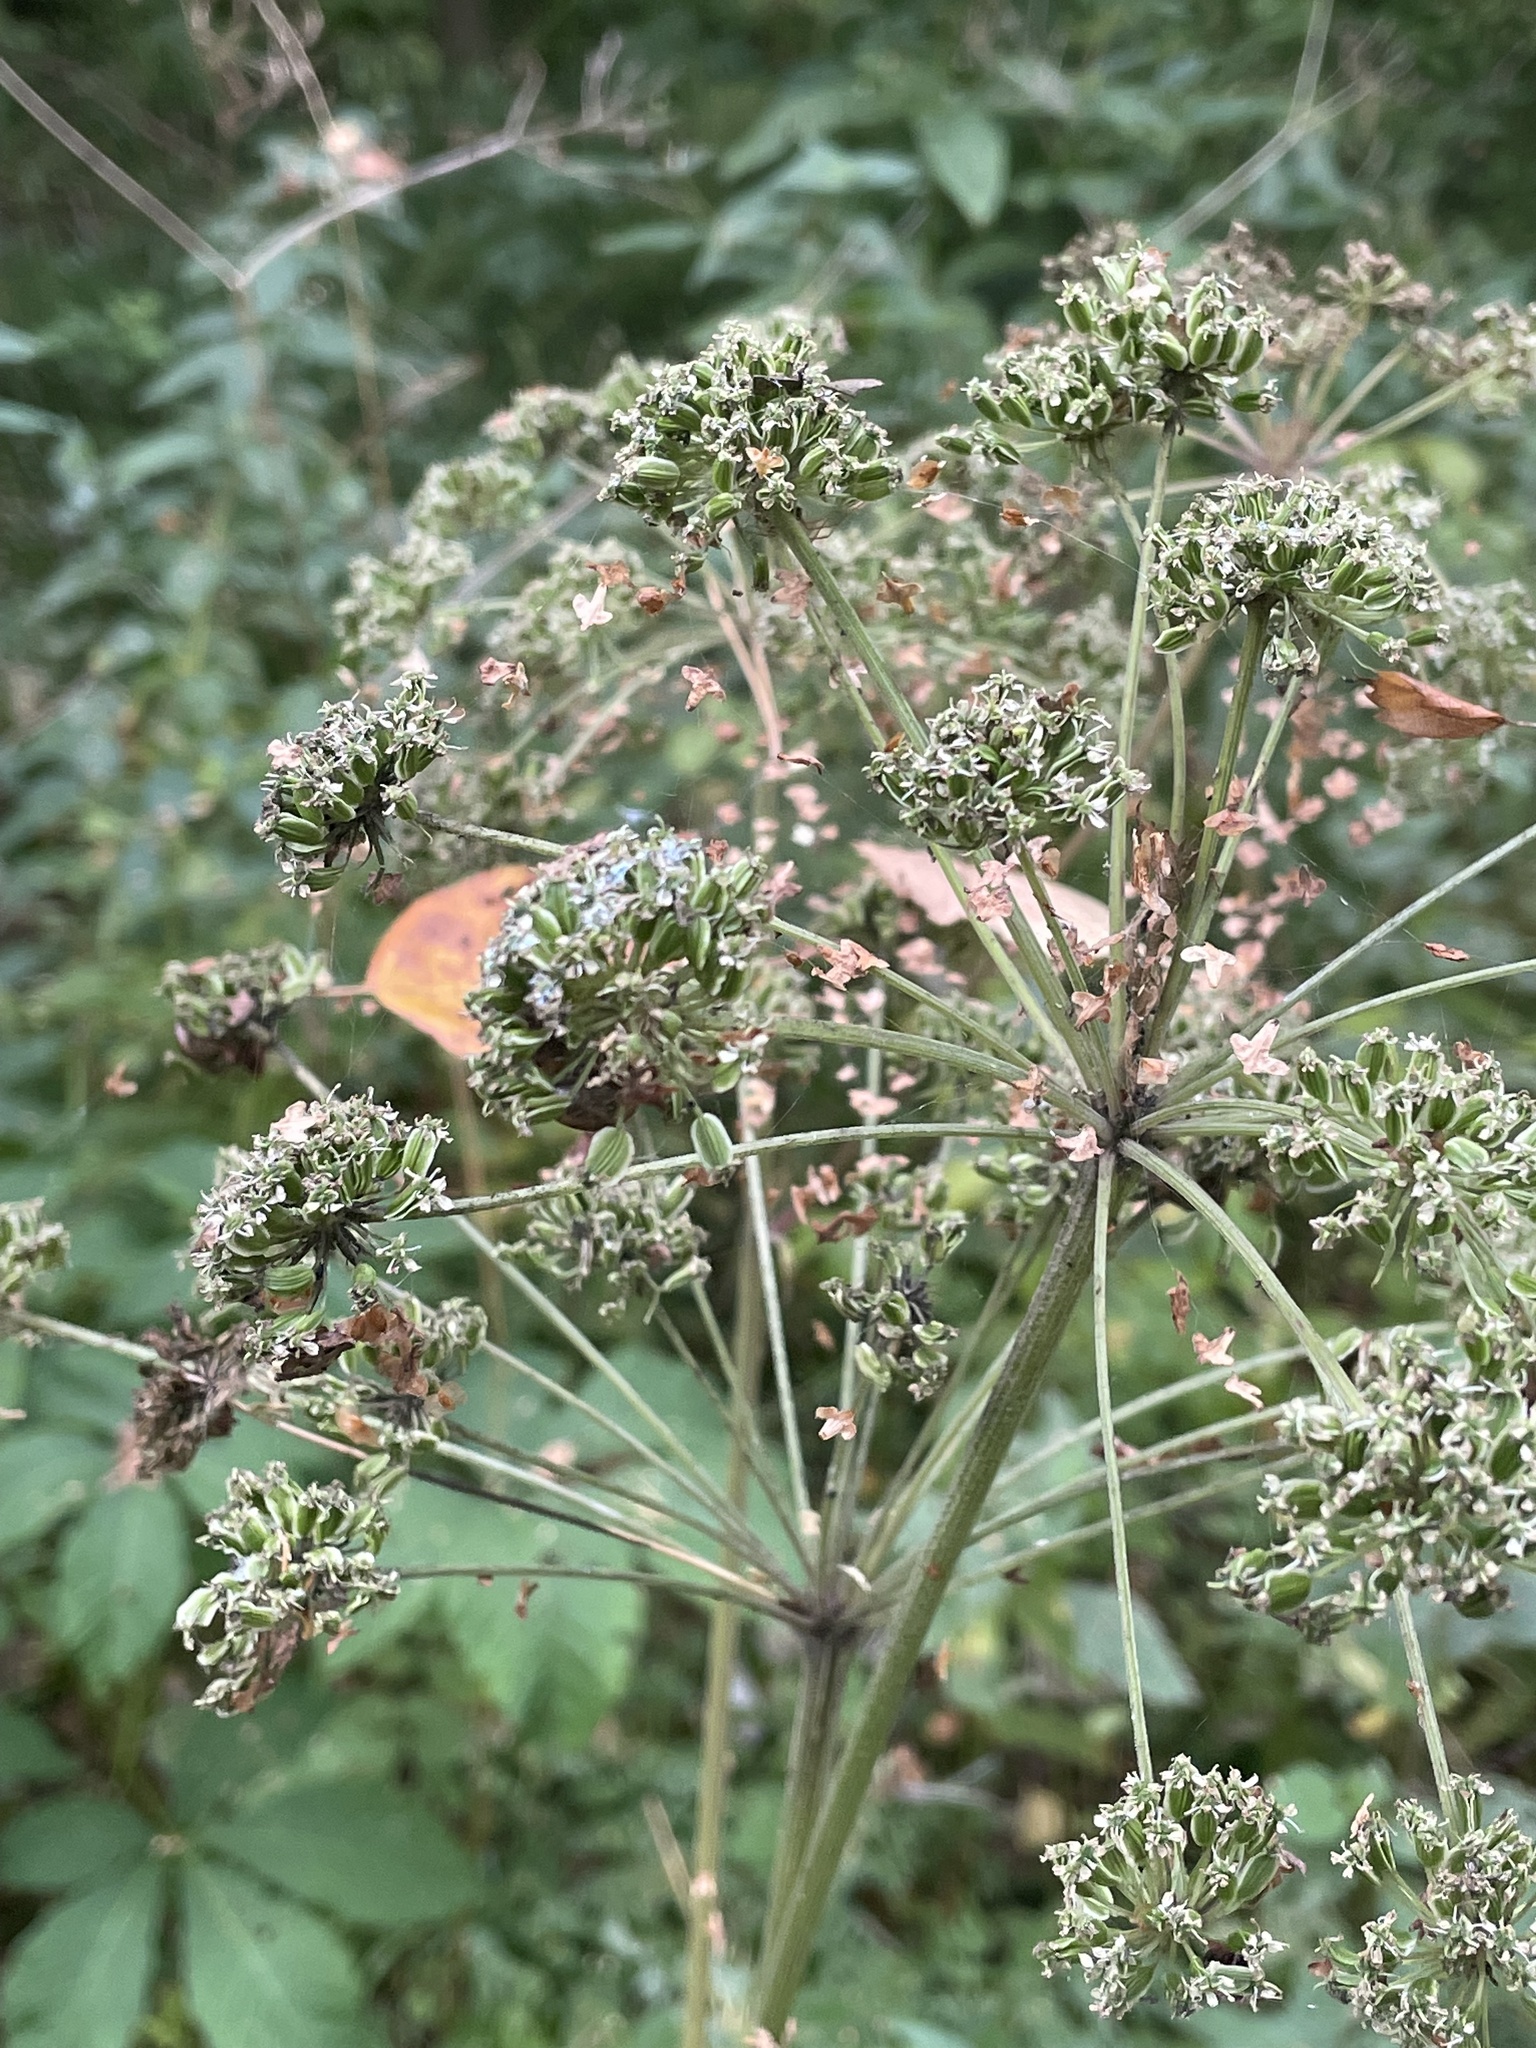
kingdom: Plantae
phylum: Tracheophyta
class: Magnoliopsida
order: Apiales
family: Apiaceae
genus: Angelica
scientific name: Angelica sylvestris
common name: Wild angelica
